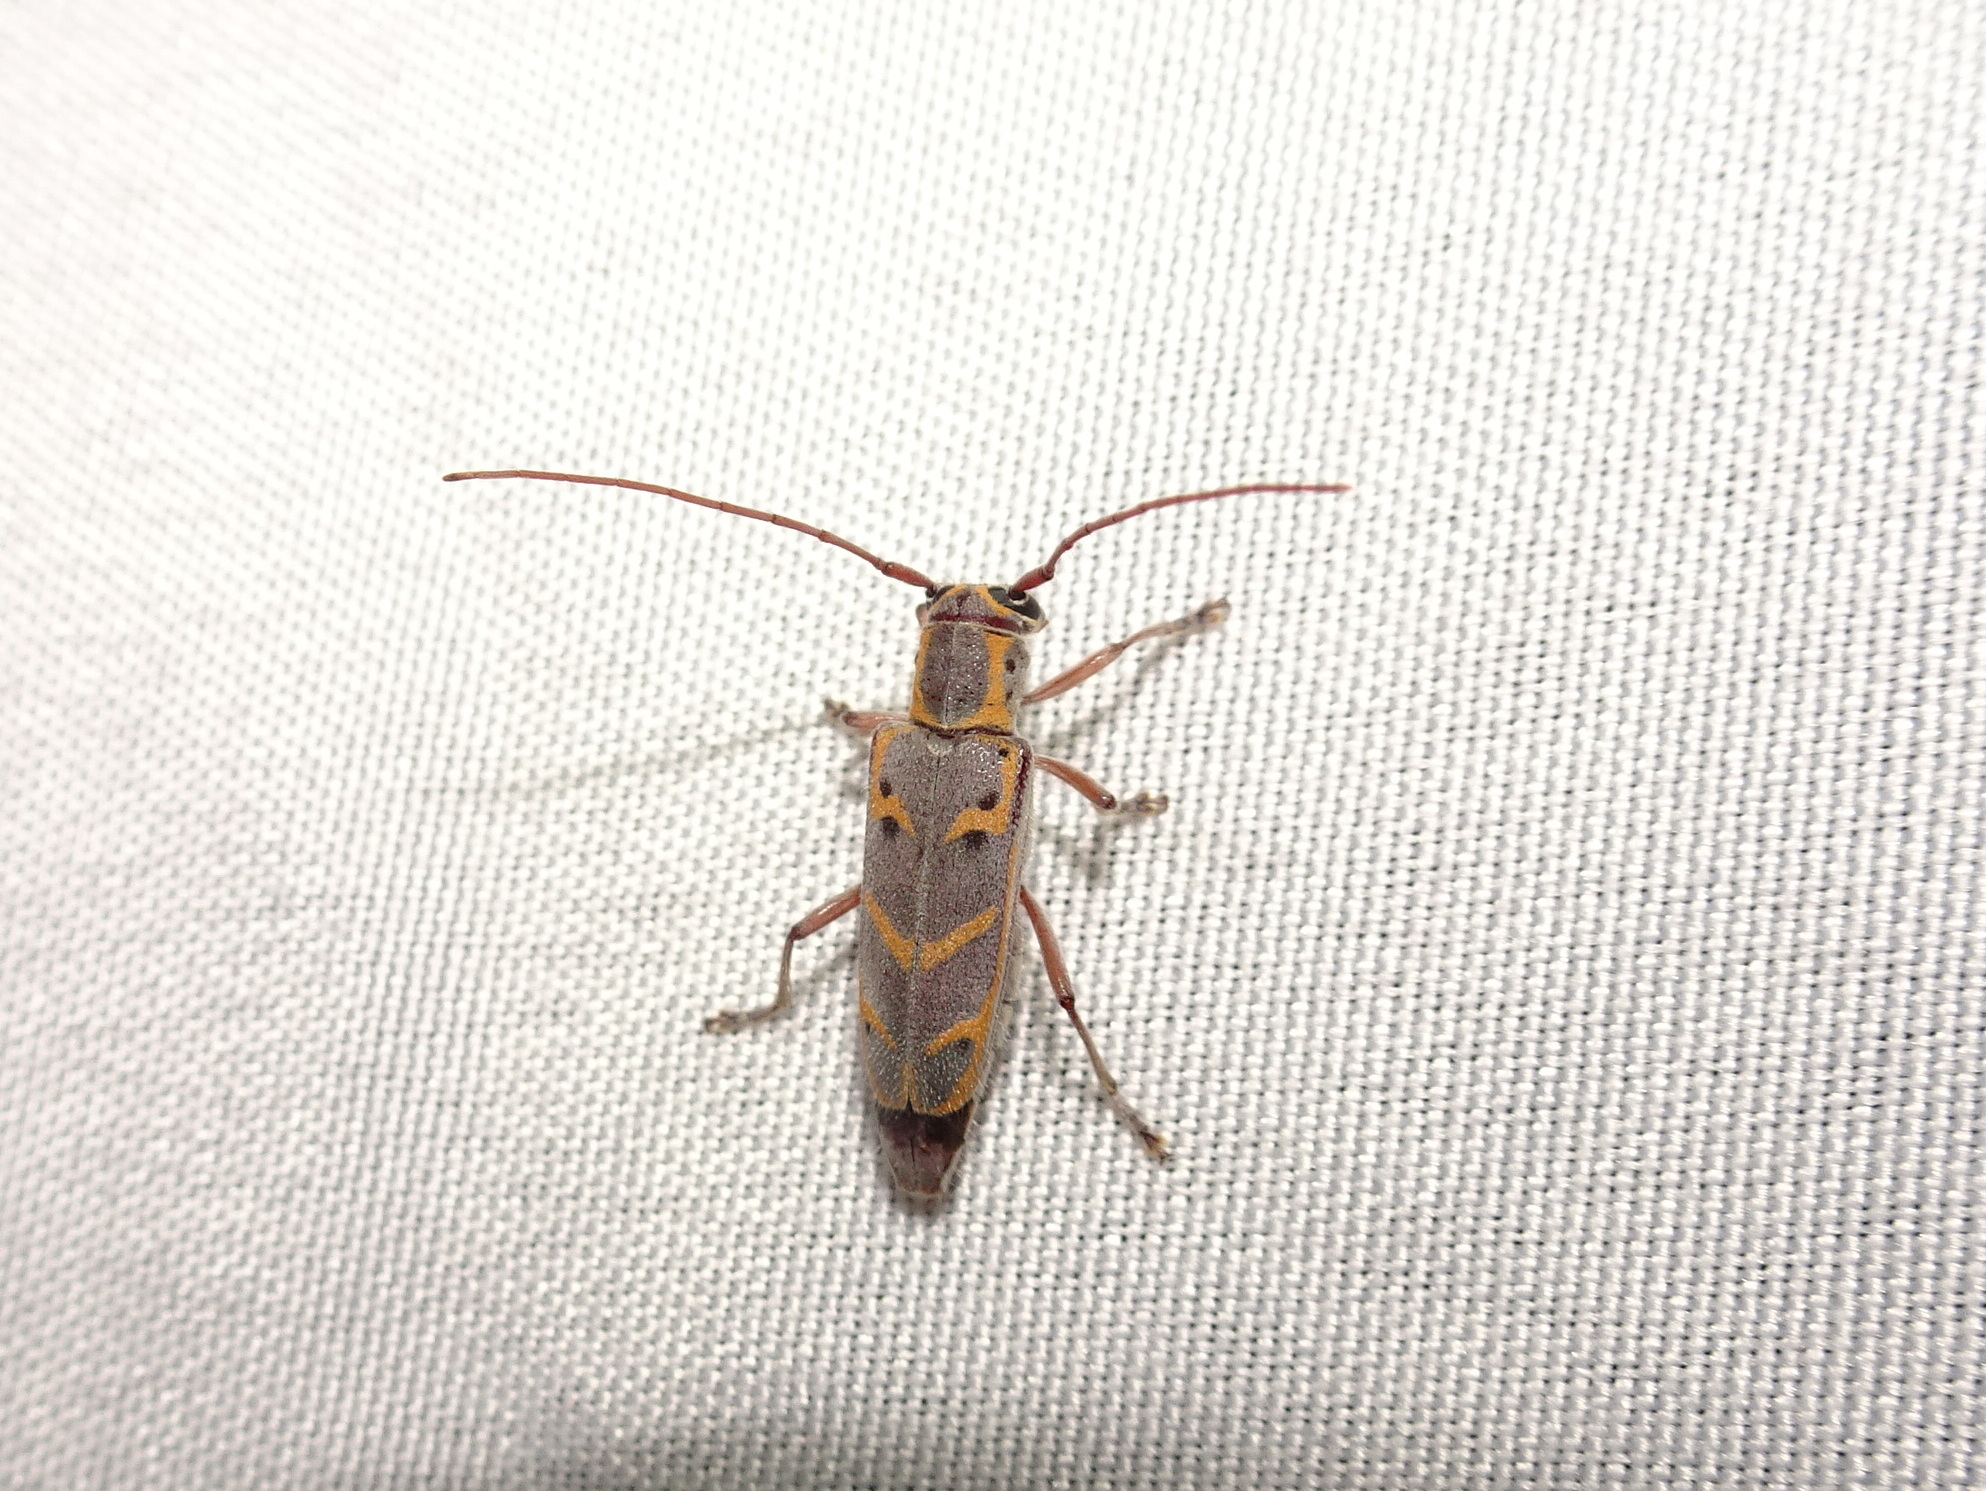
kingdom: Animalia
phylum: Arthropoda
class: Insecta
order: Coleoptera
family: Cerambycidae
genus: Saperda
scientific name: Saperda tridentata
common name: Elm borer
